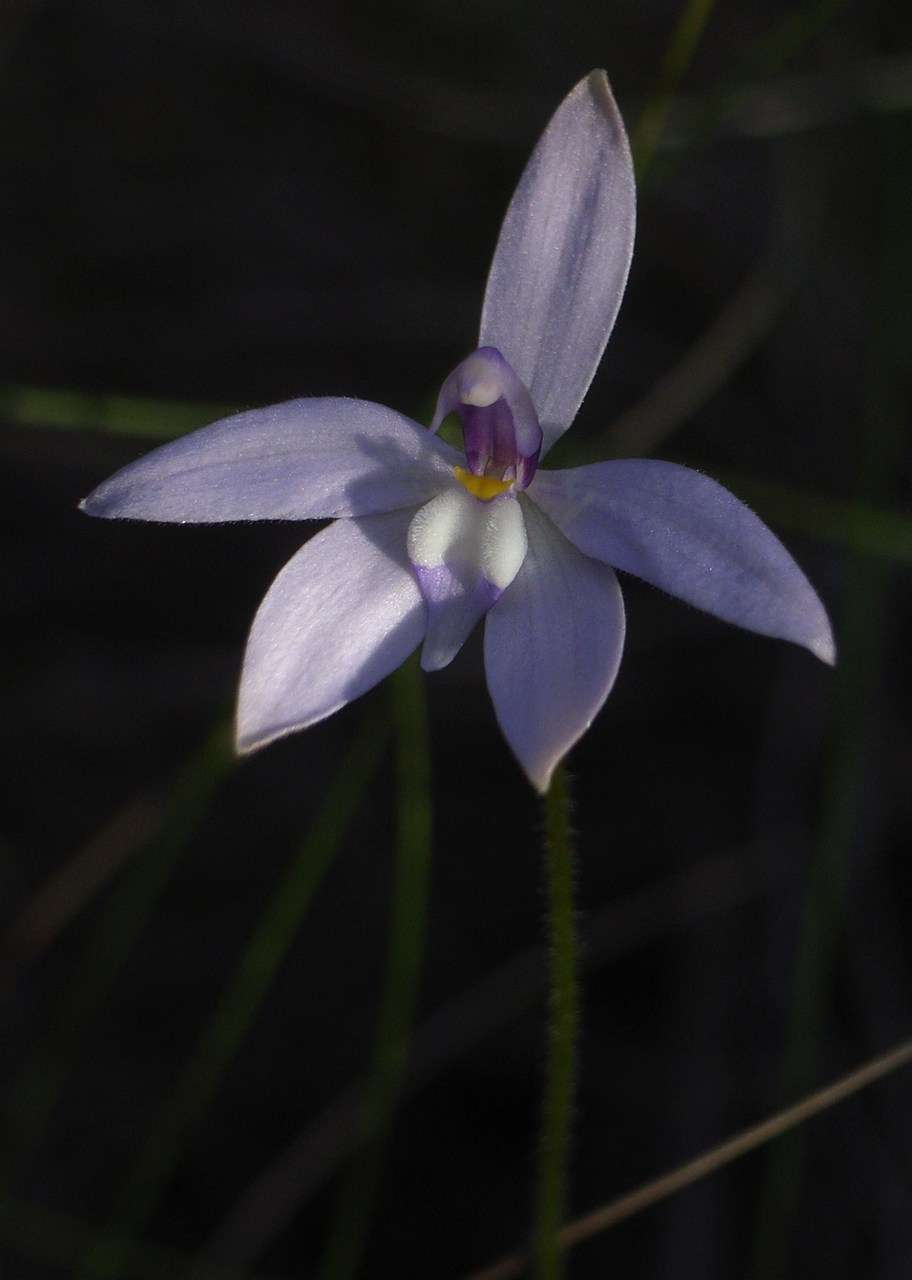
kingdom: Plantae
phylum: Tracheophyta
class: Liliopsida
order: Asparagales
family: Orchidaceae
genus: Caladenia
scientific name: Caladenia major
